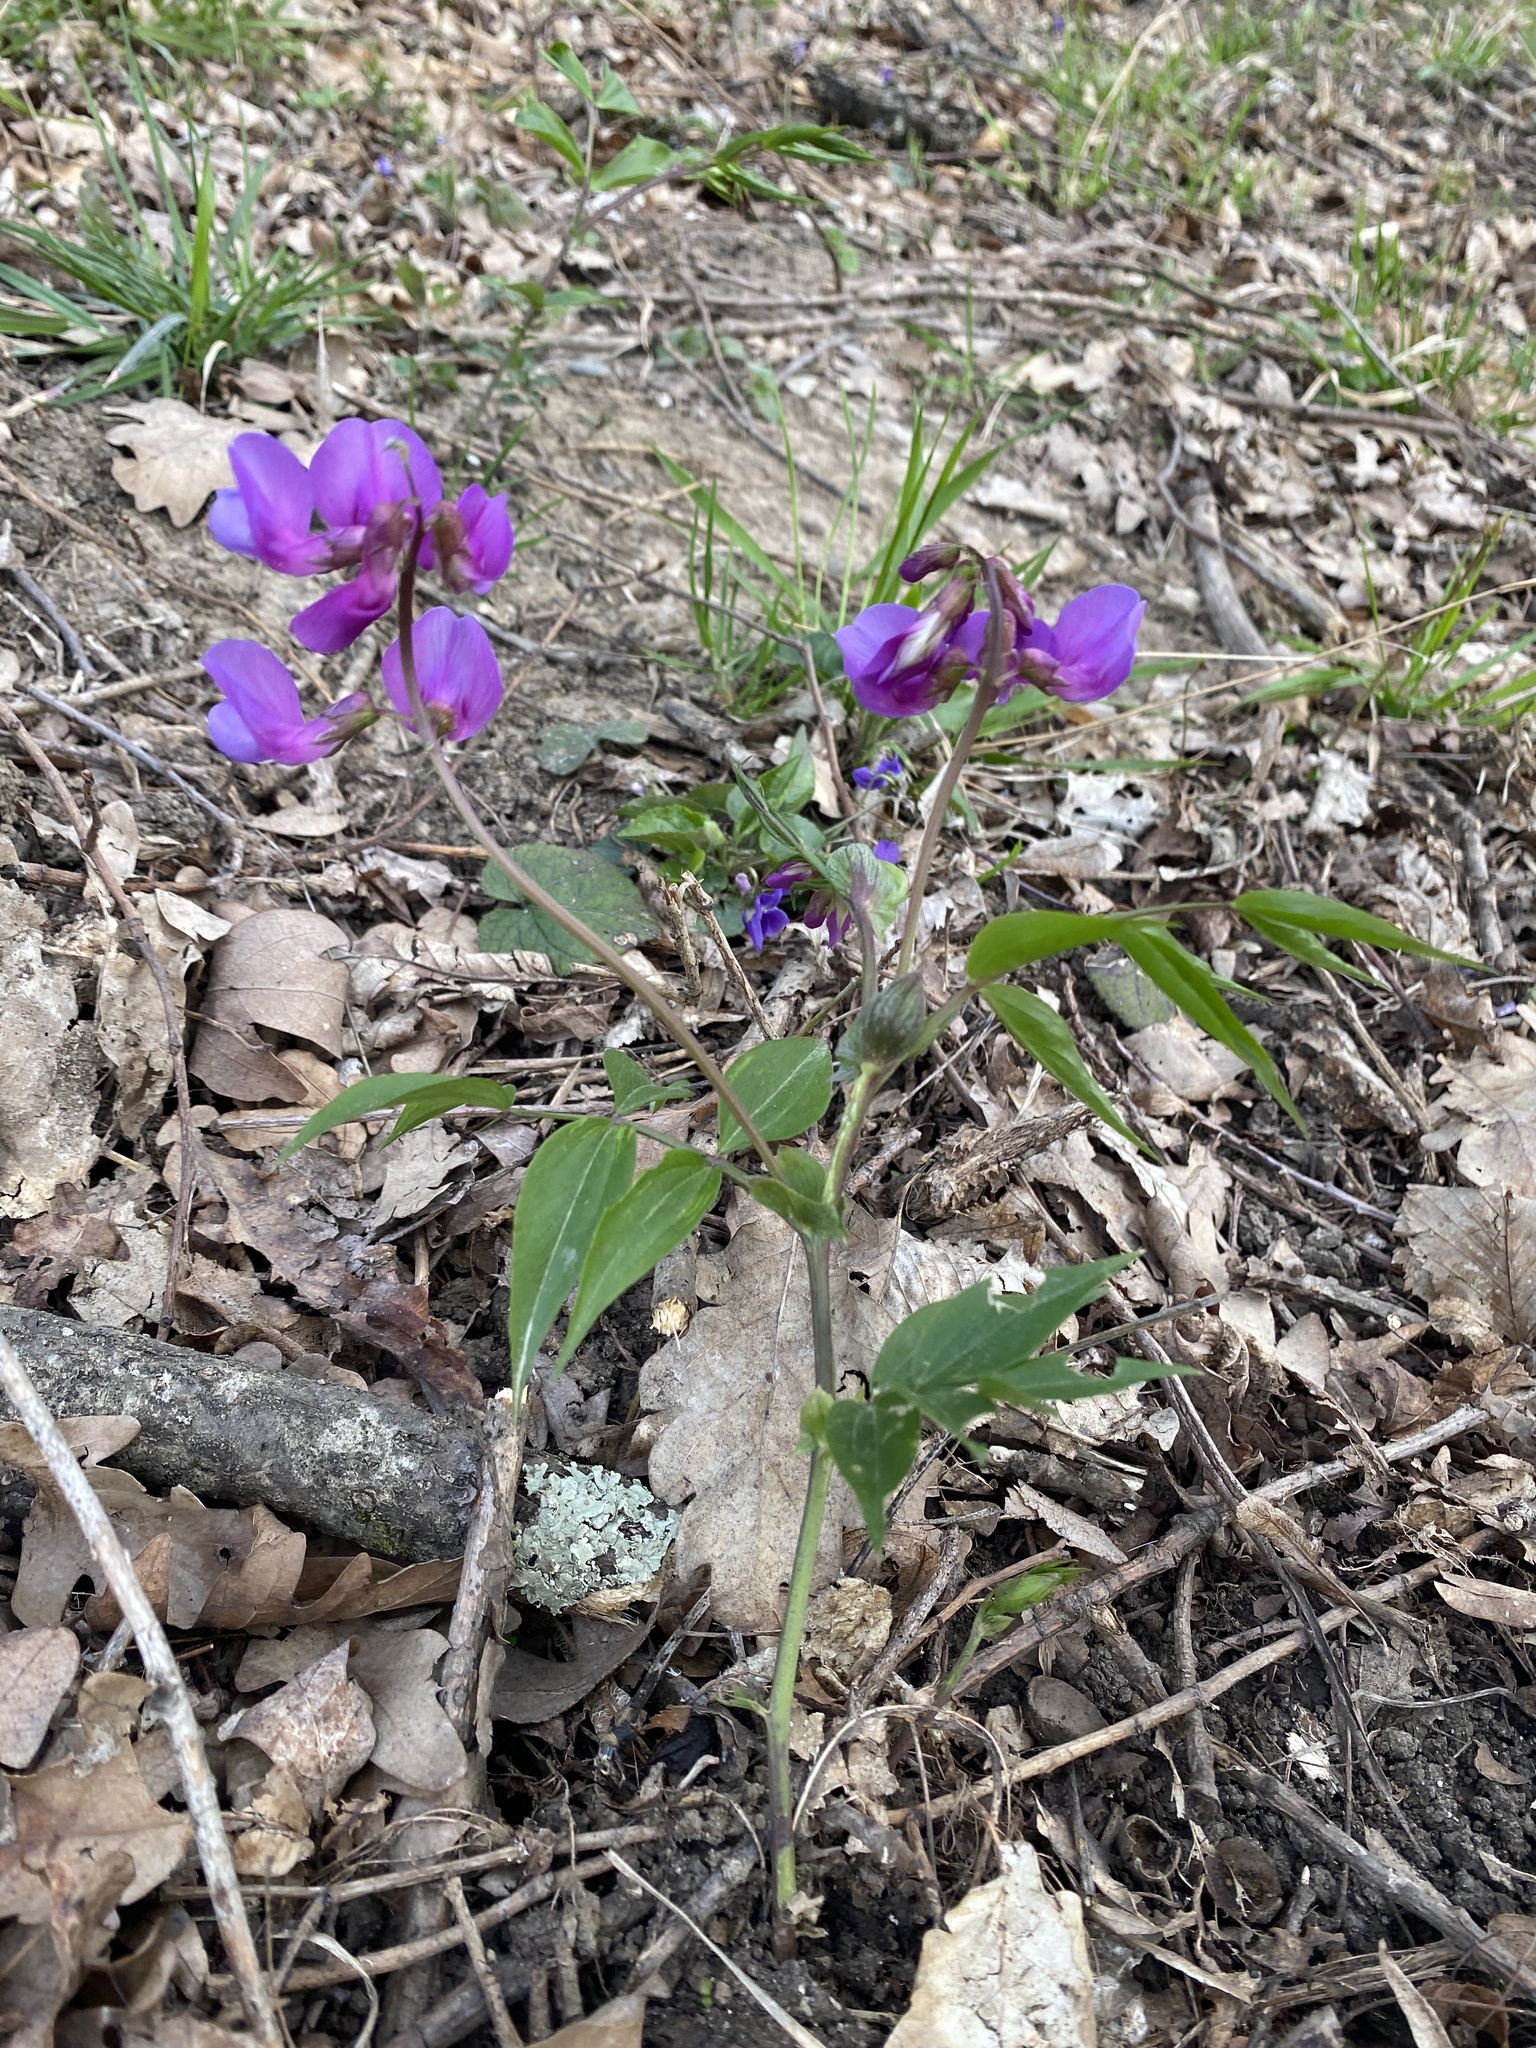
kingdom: Plantae
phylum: Tracheophyta
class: Magnoliopsida
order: Fabales
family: Fabaceae
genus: Lathyrus
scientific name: Lathyrus vernus
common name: Spring pea
